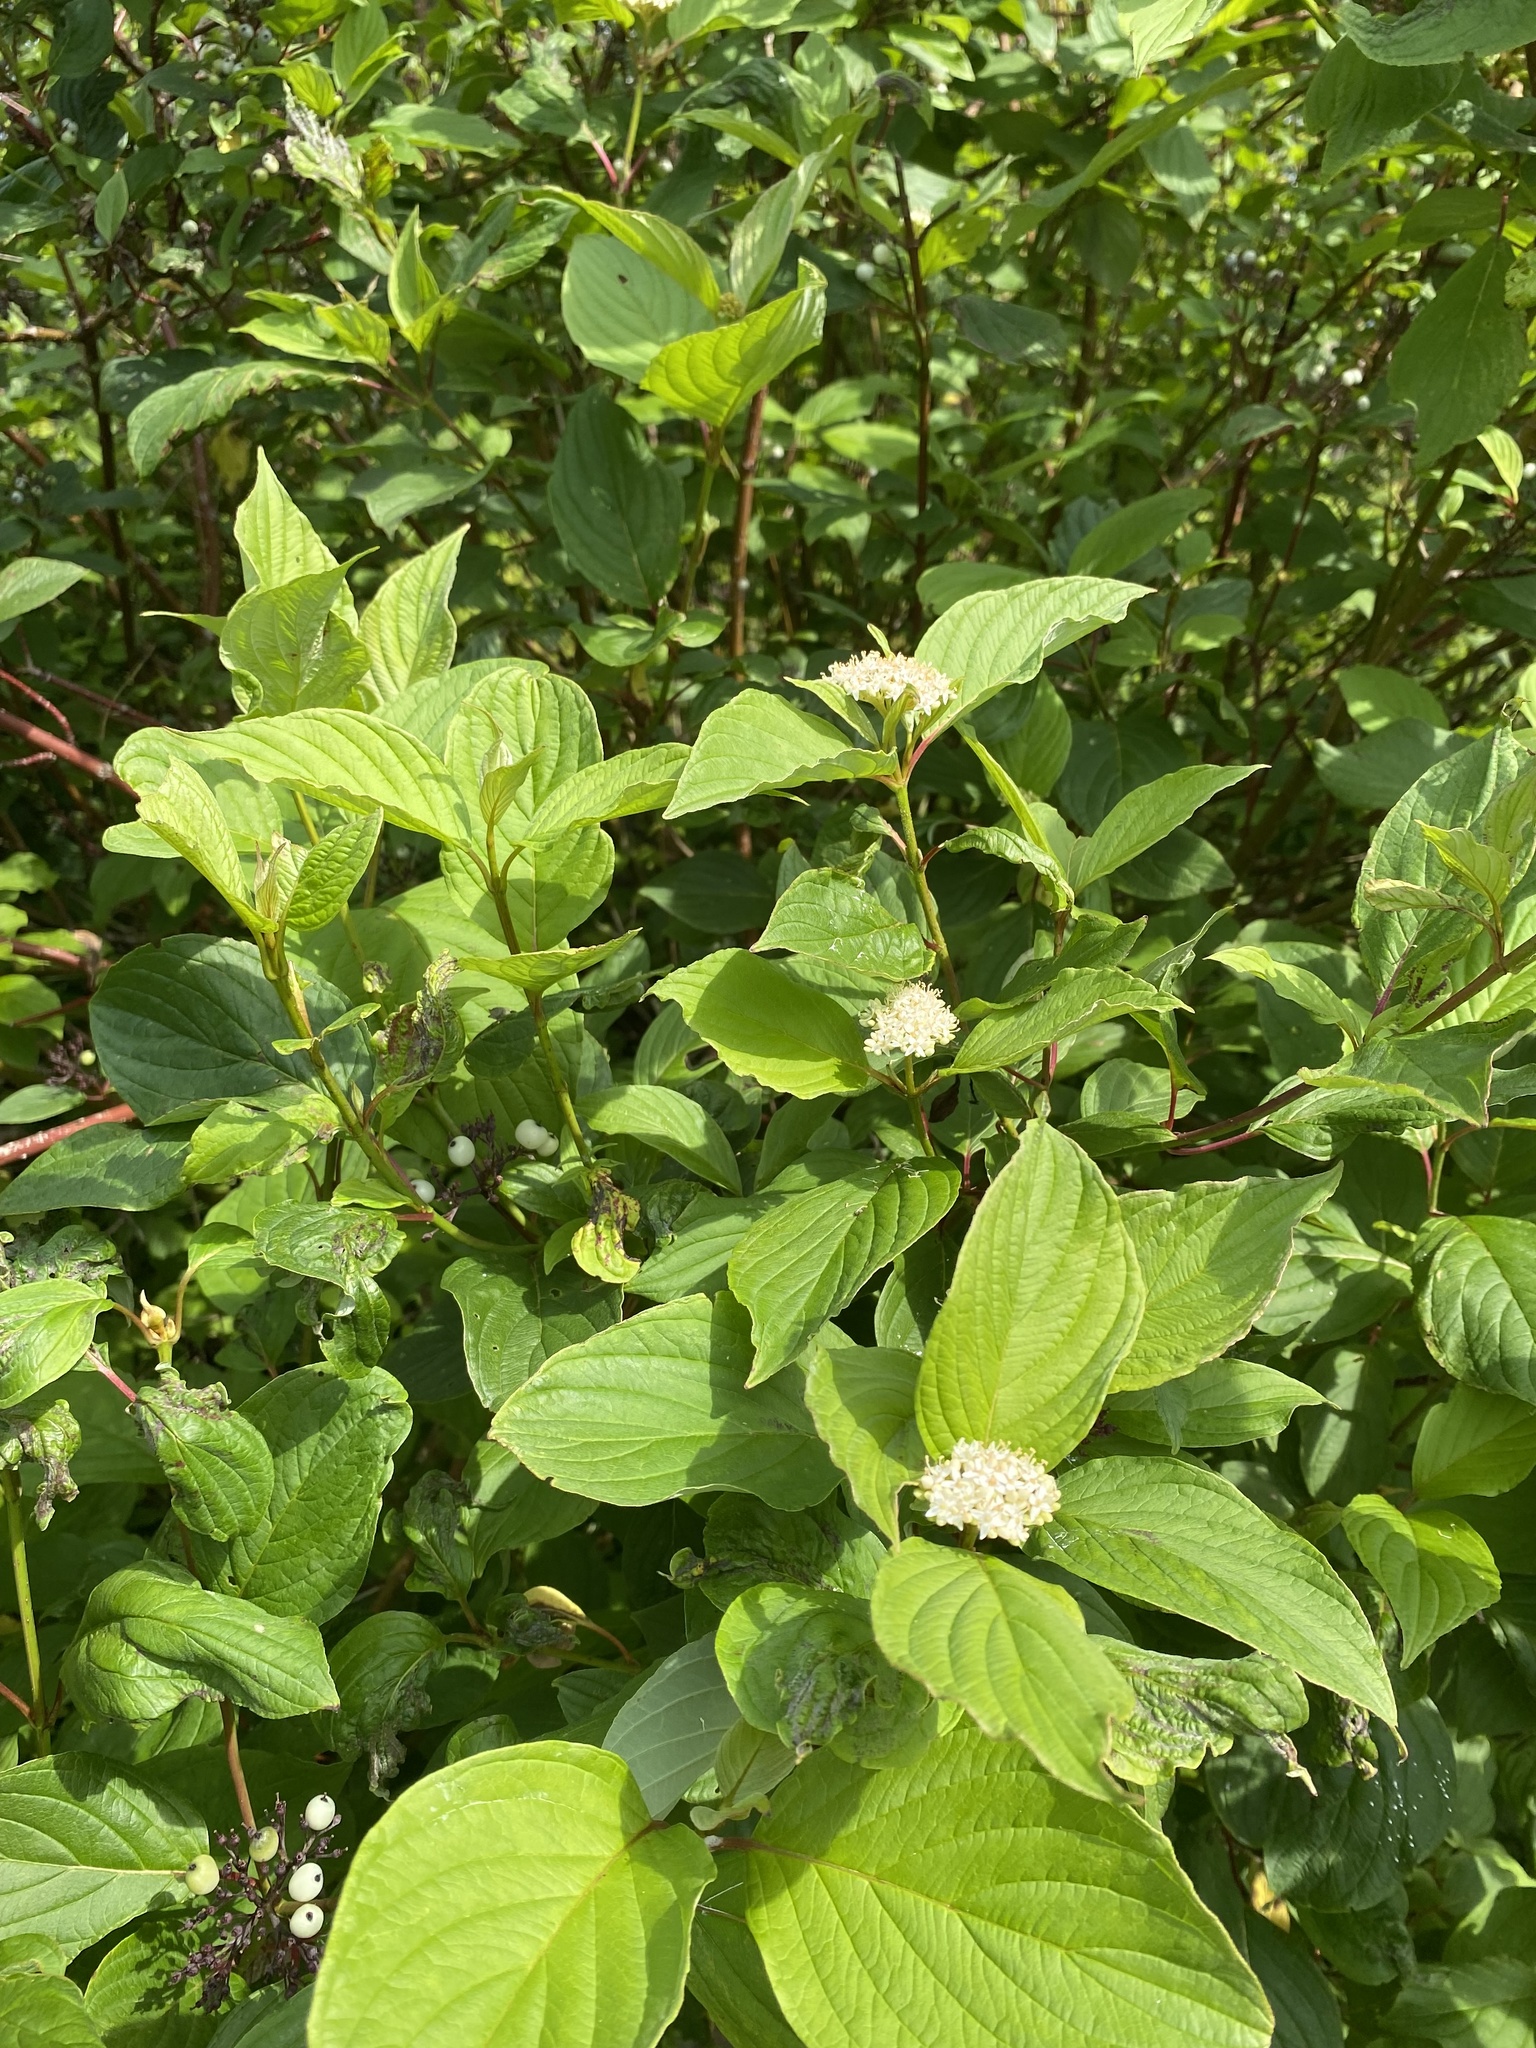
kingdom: Plantae
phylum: Tracheophyta
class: Magnoliopsida
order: Cornales
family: Cornaceae
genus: Cornus
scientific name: Cornus sericea
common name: Red-osier dogwood
